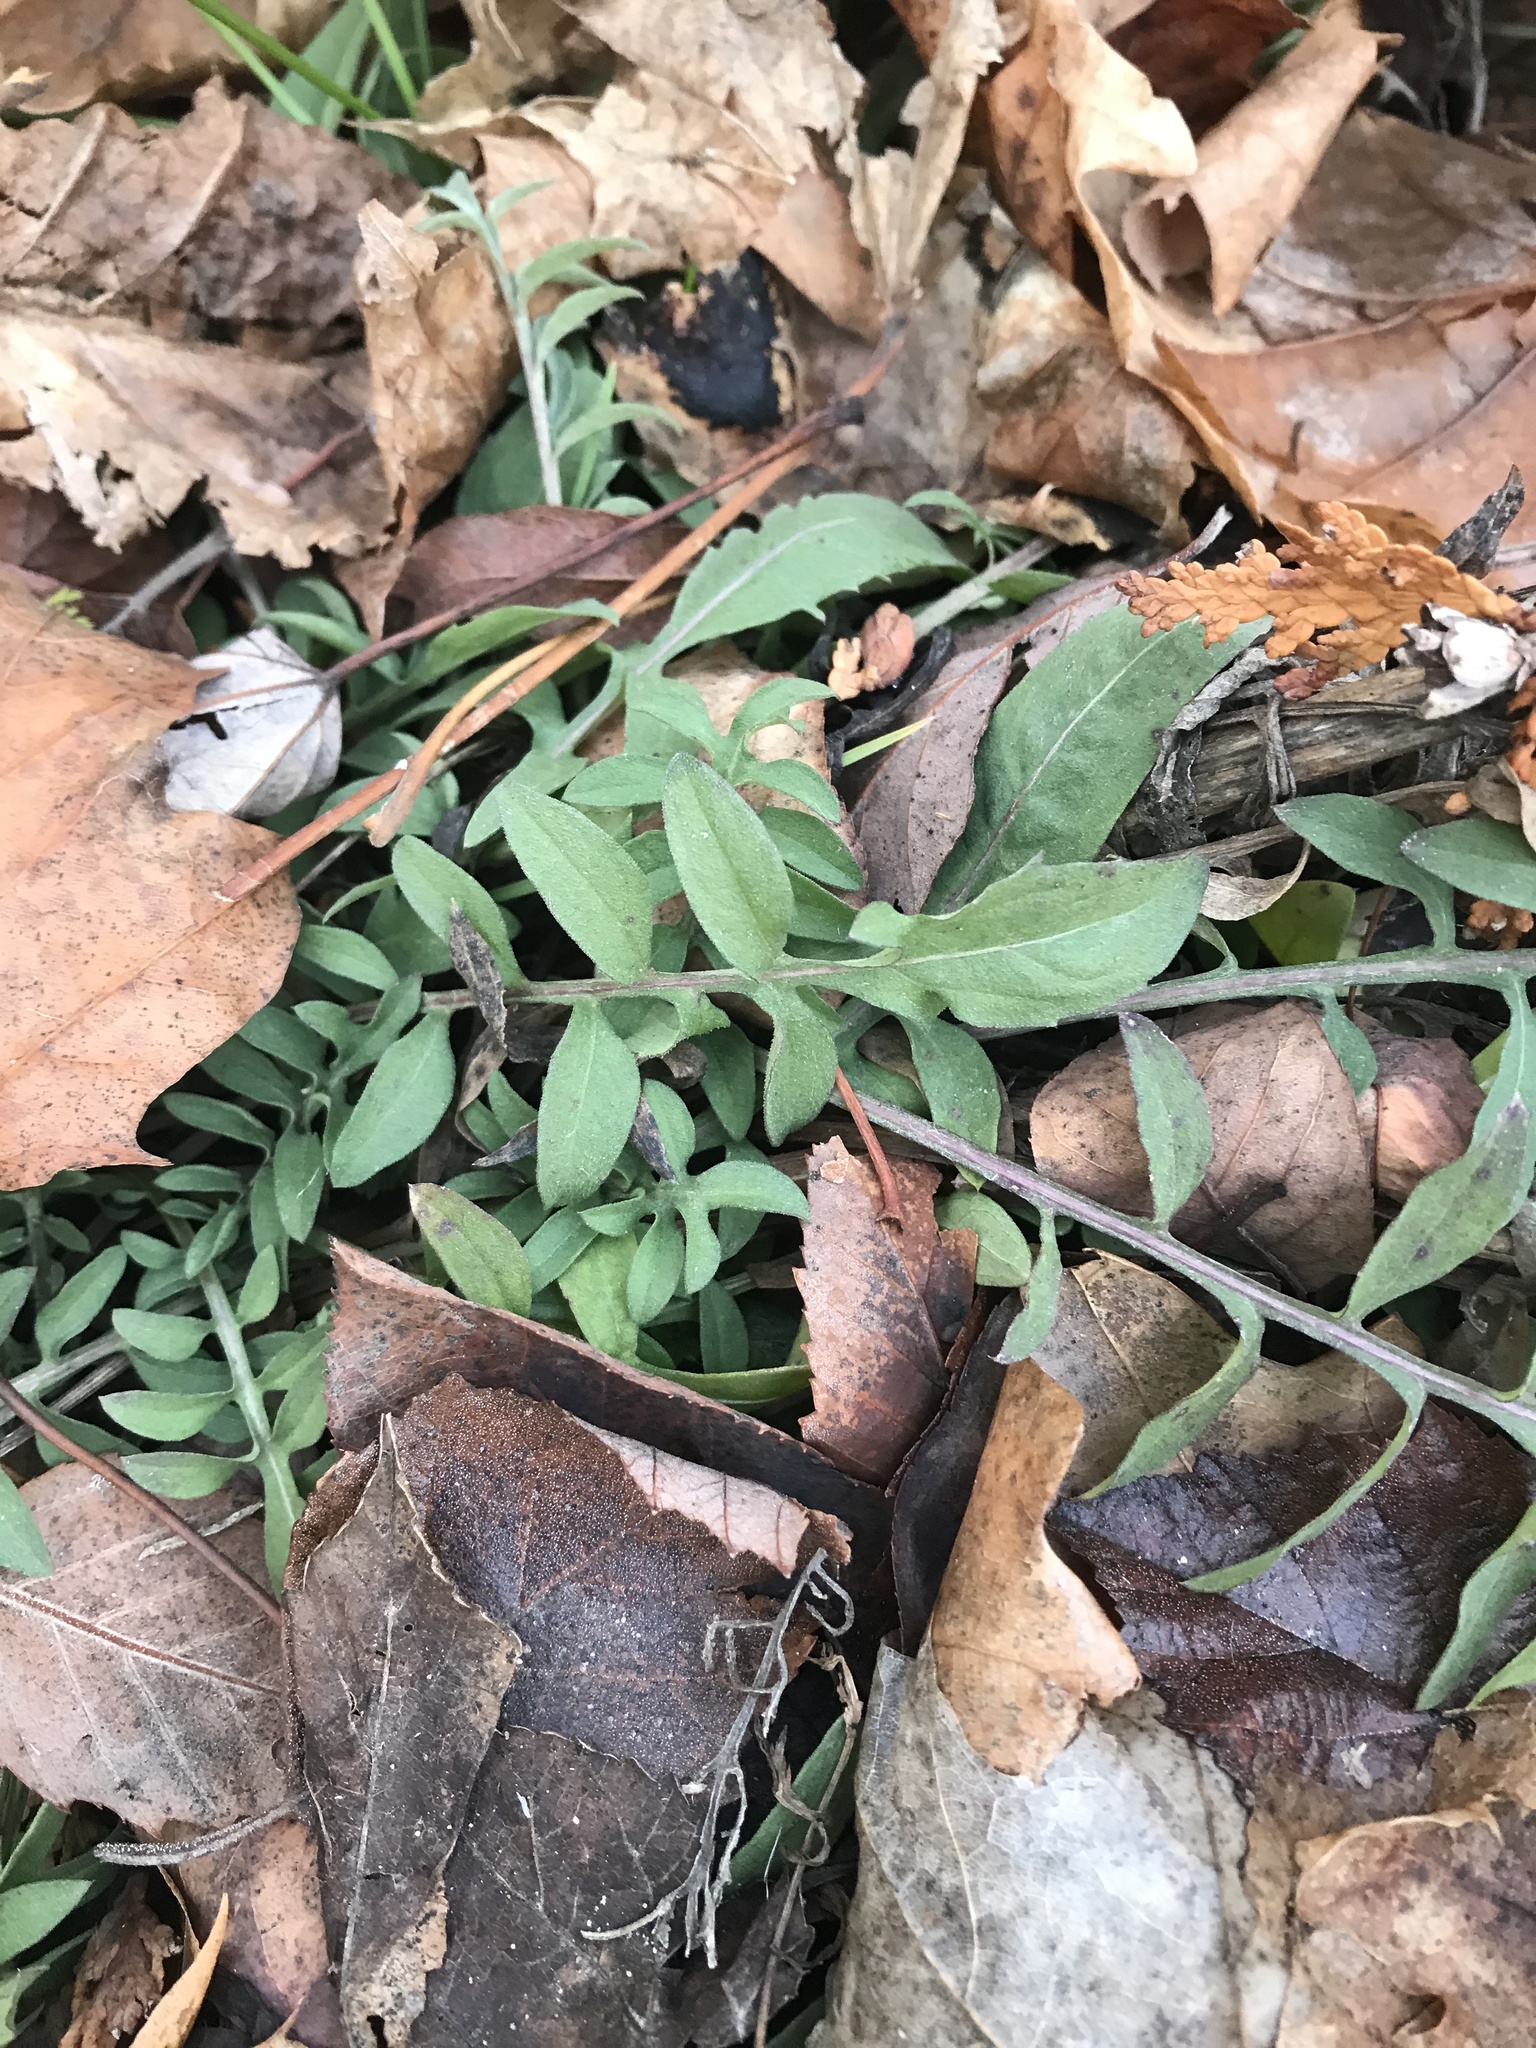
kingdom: Plantae
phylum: Tracheophyta
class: Magnoliopsida
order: Asterales
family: Asteraceae
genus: Centaurea
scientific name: Centaurea stoebe
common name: Spotted knapweed
